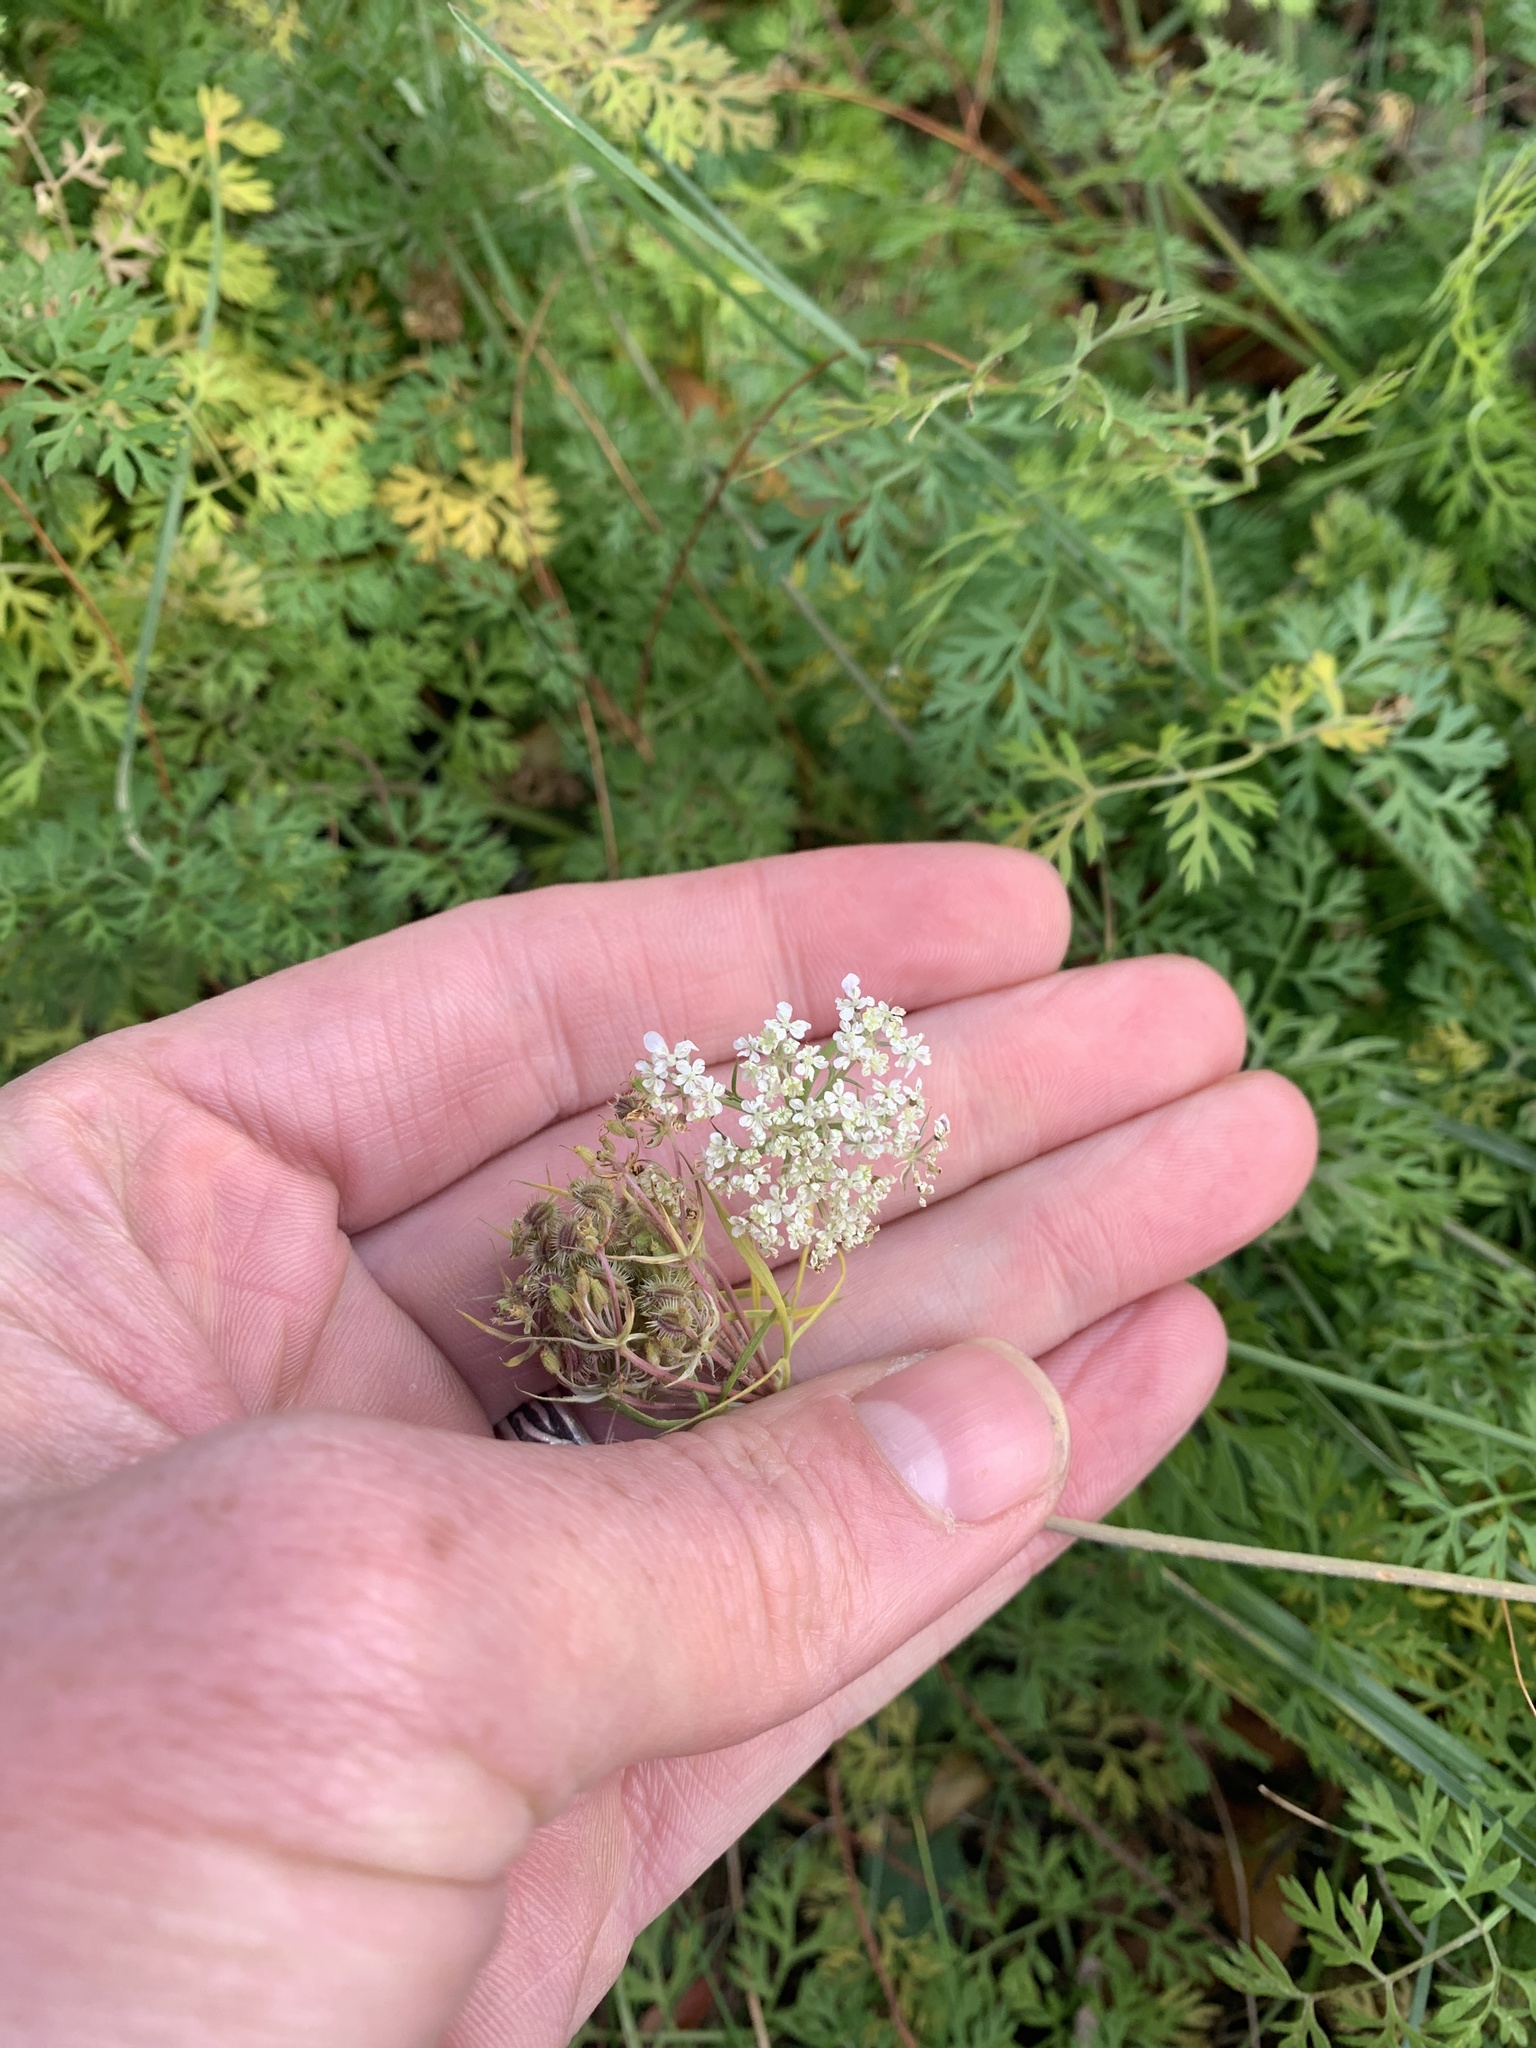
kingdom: Plantae
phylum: Tracheophyta
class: Magnoliopsida
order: Apiales
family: Apiaceae
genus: Daucus
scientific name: Daucus carota
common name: Wild carrot
